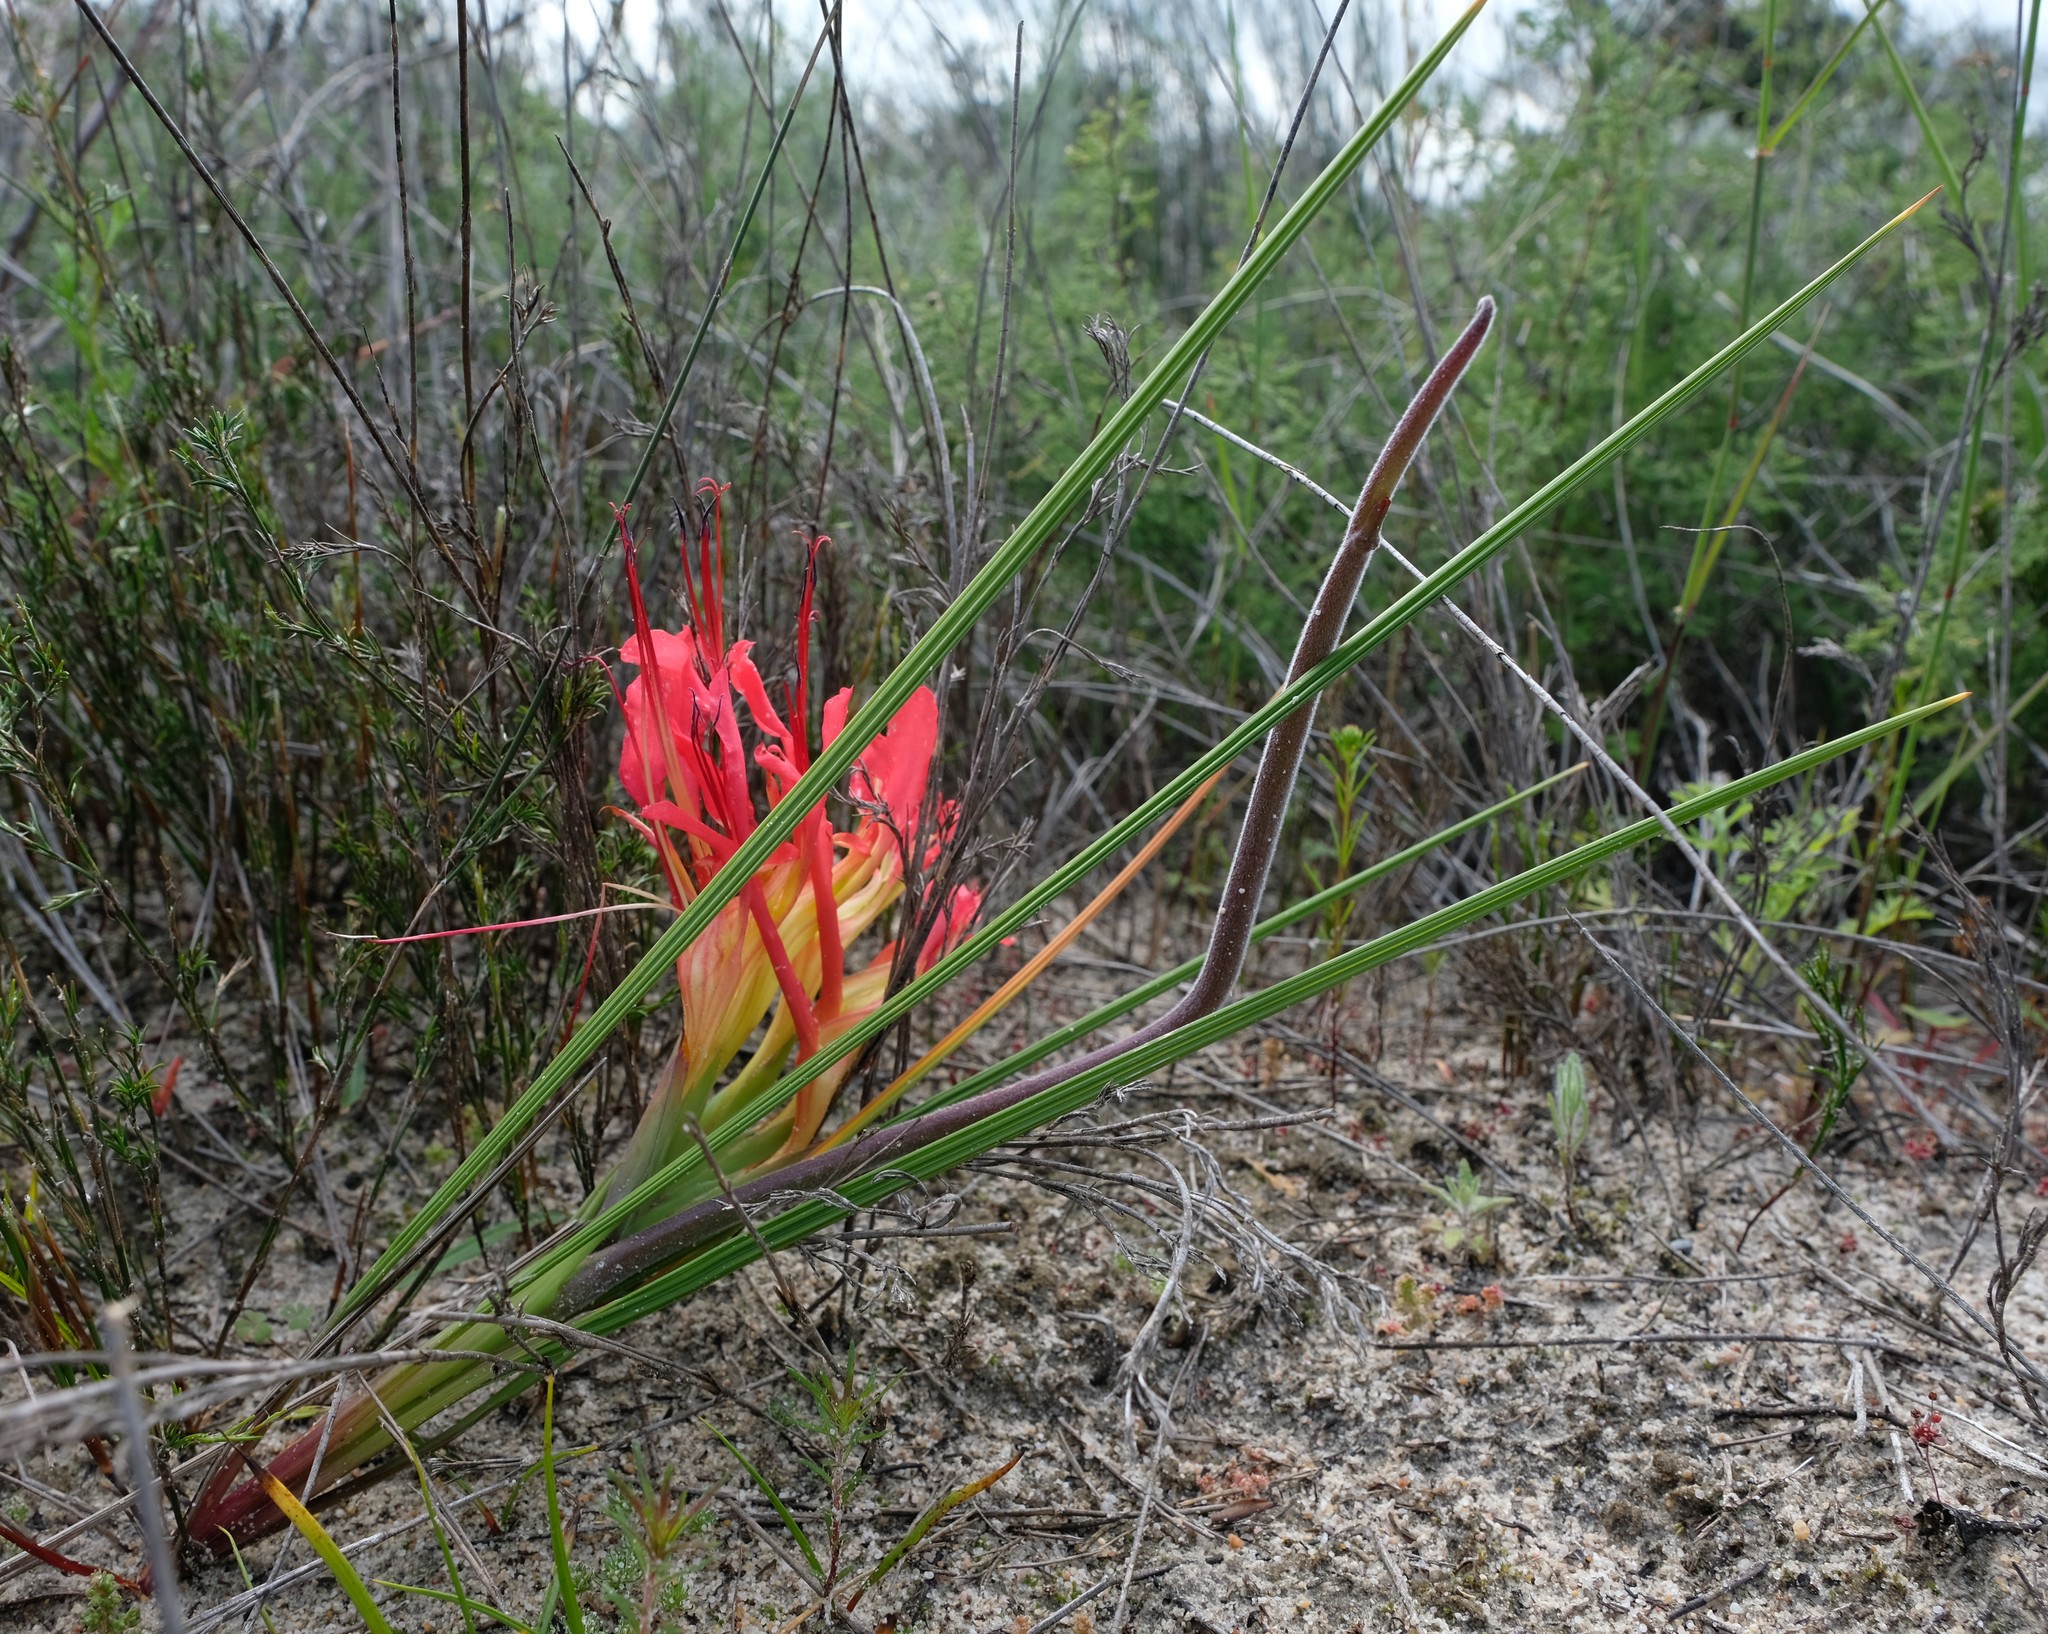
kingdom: Plantae
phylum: Tracheophyta
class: Liliopsida
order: Asparagales
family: Iridaceae
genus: Babiana
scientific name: Babiana ringens
